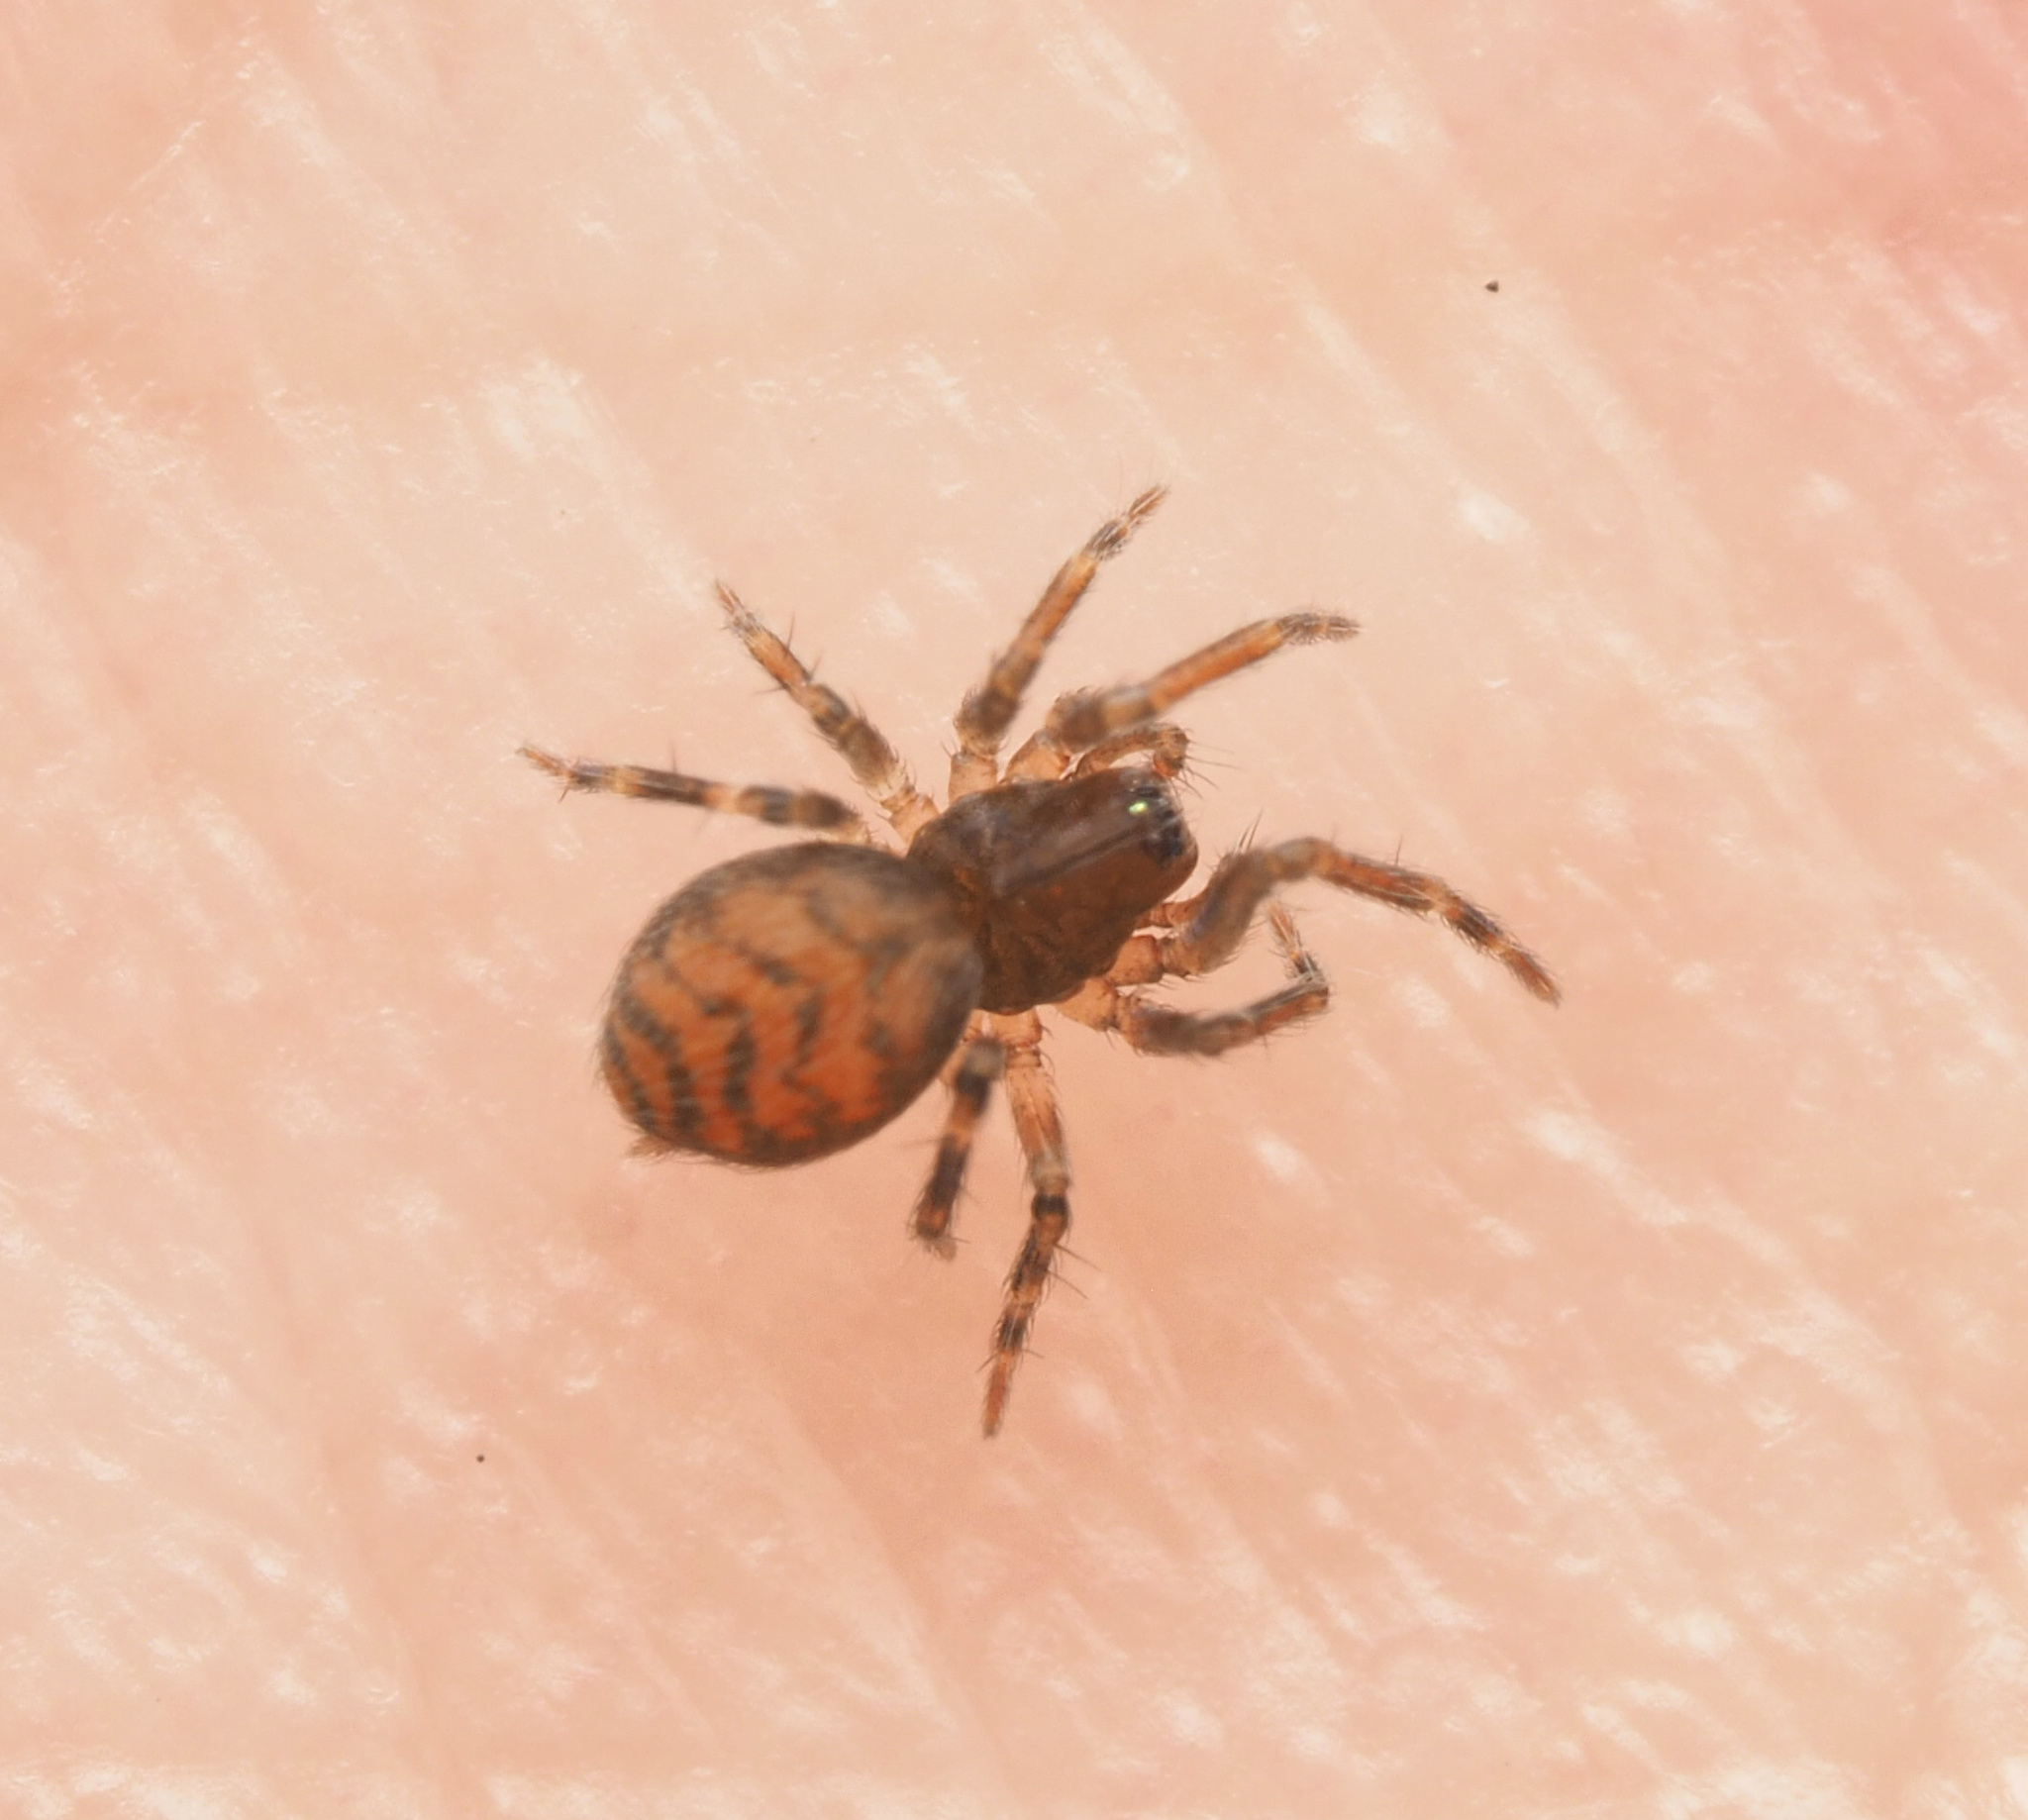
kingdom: Animalia
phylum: Arthropoda
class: Arachnida
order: Araneae
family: Hahniidae
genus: Alistra
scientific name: Alistra
